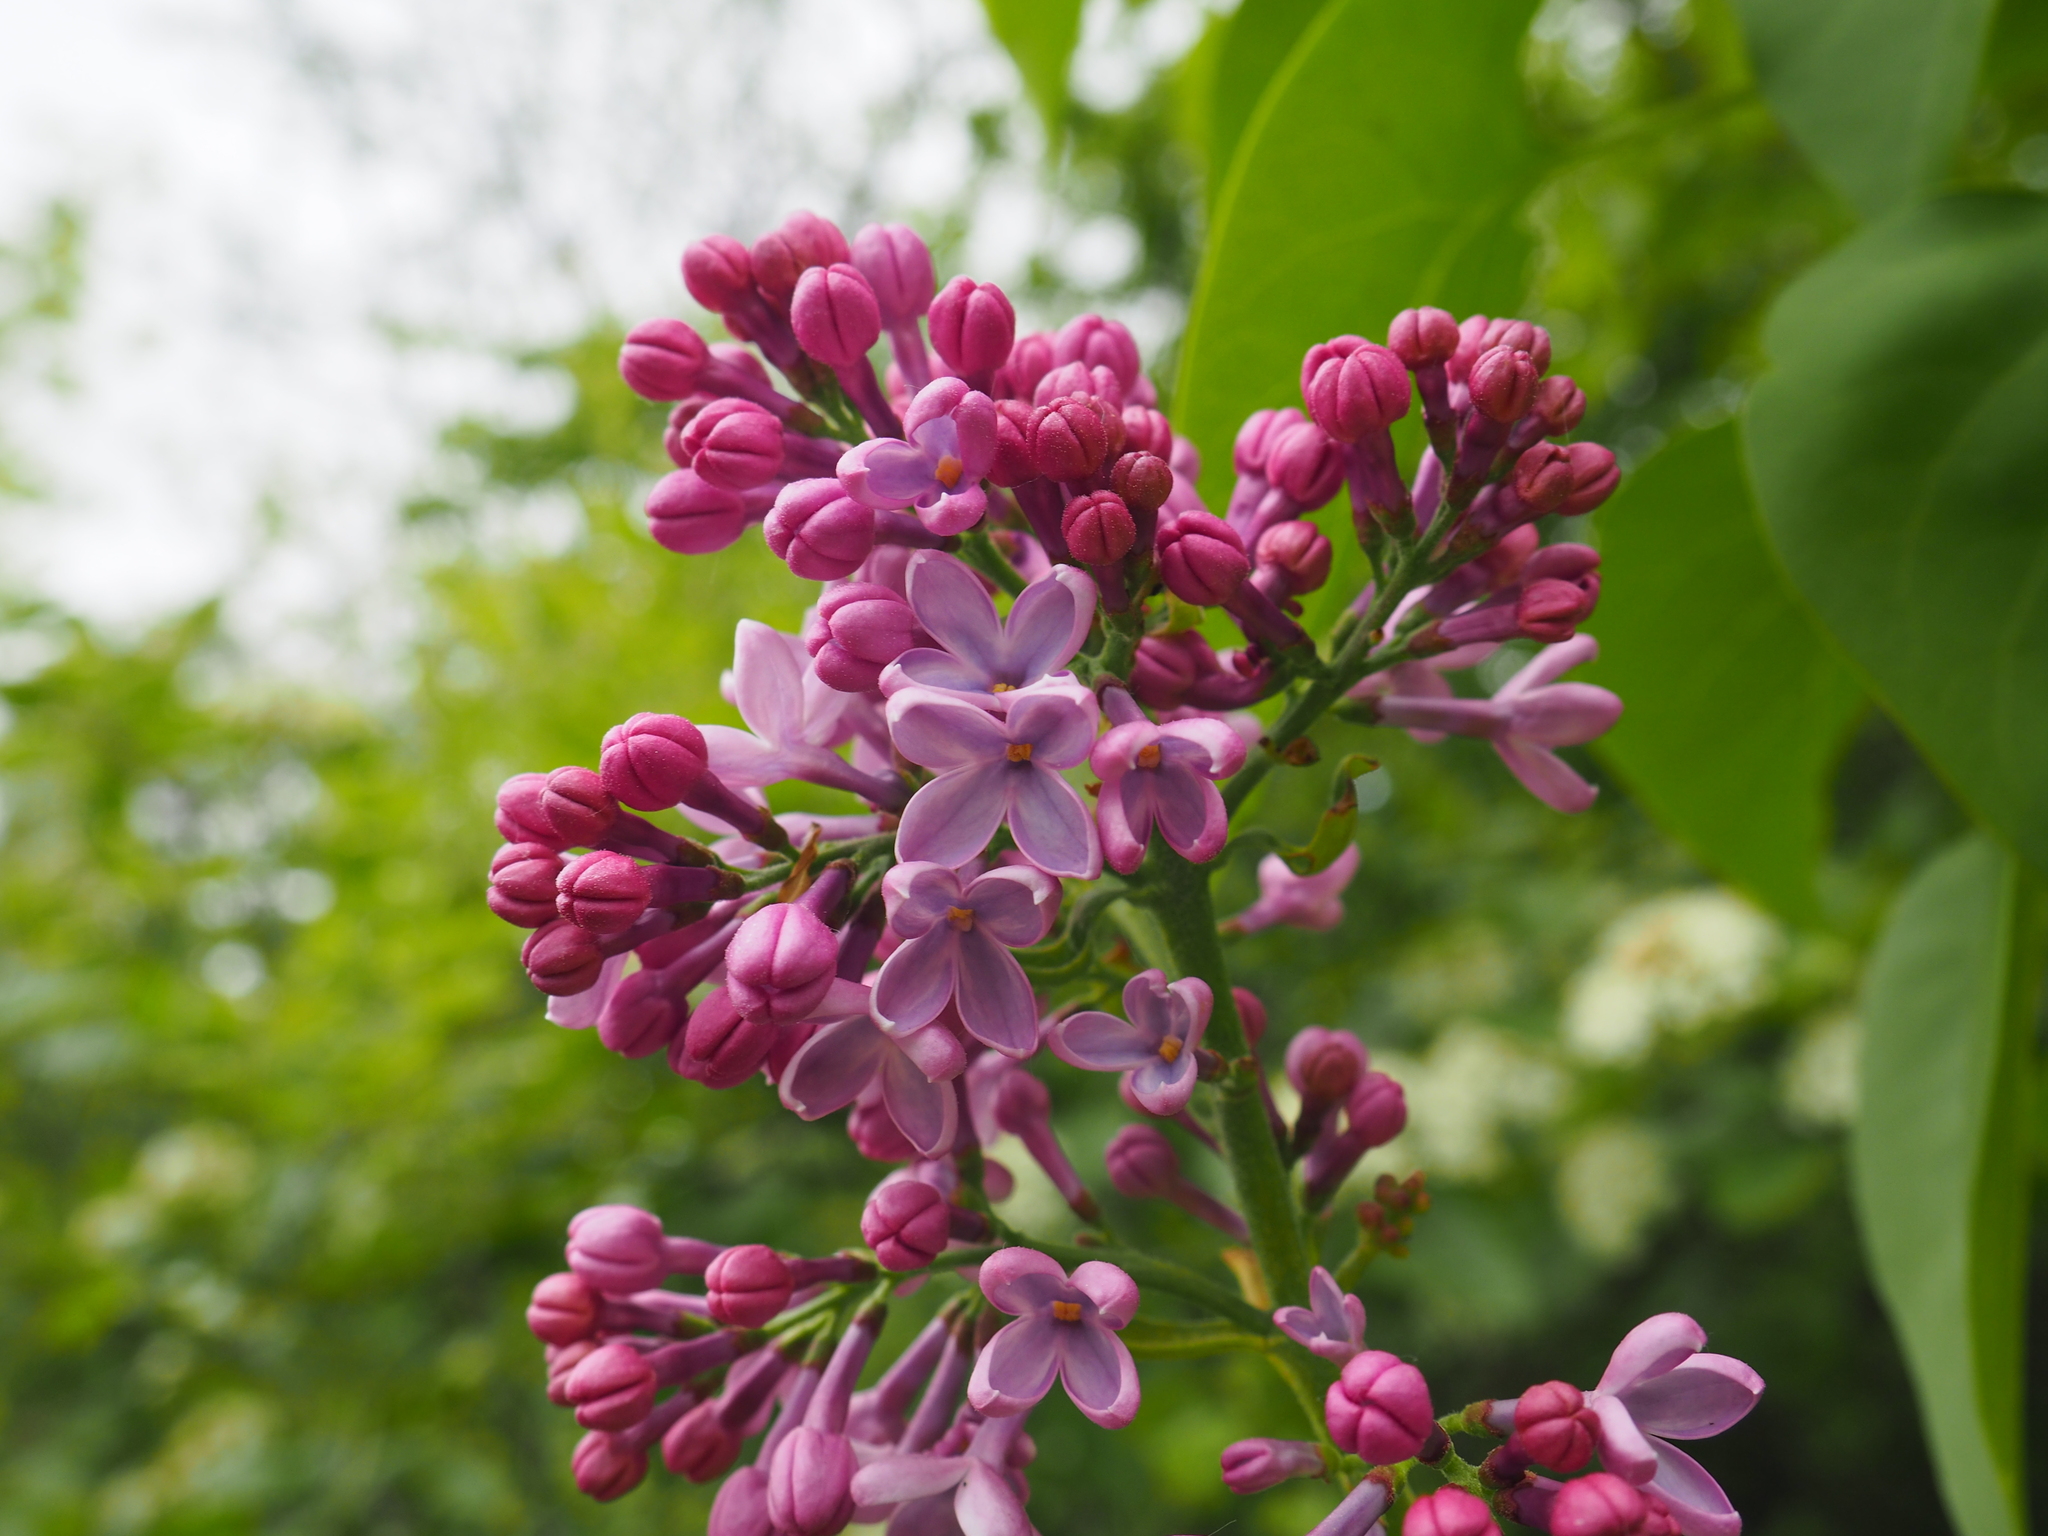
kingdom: Plantae
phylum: Tracheophyta
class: Magnoliopsida
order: Lamiales
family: Oleaceae
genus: Syringa
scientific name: Syringa vulgaris
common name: Common lilac
